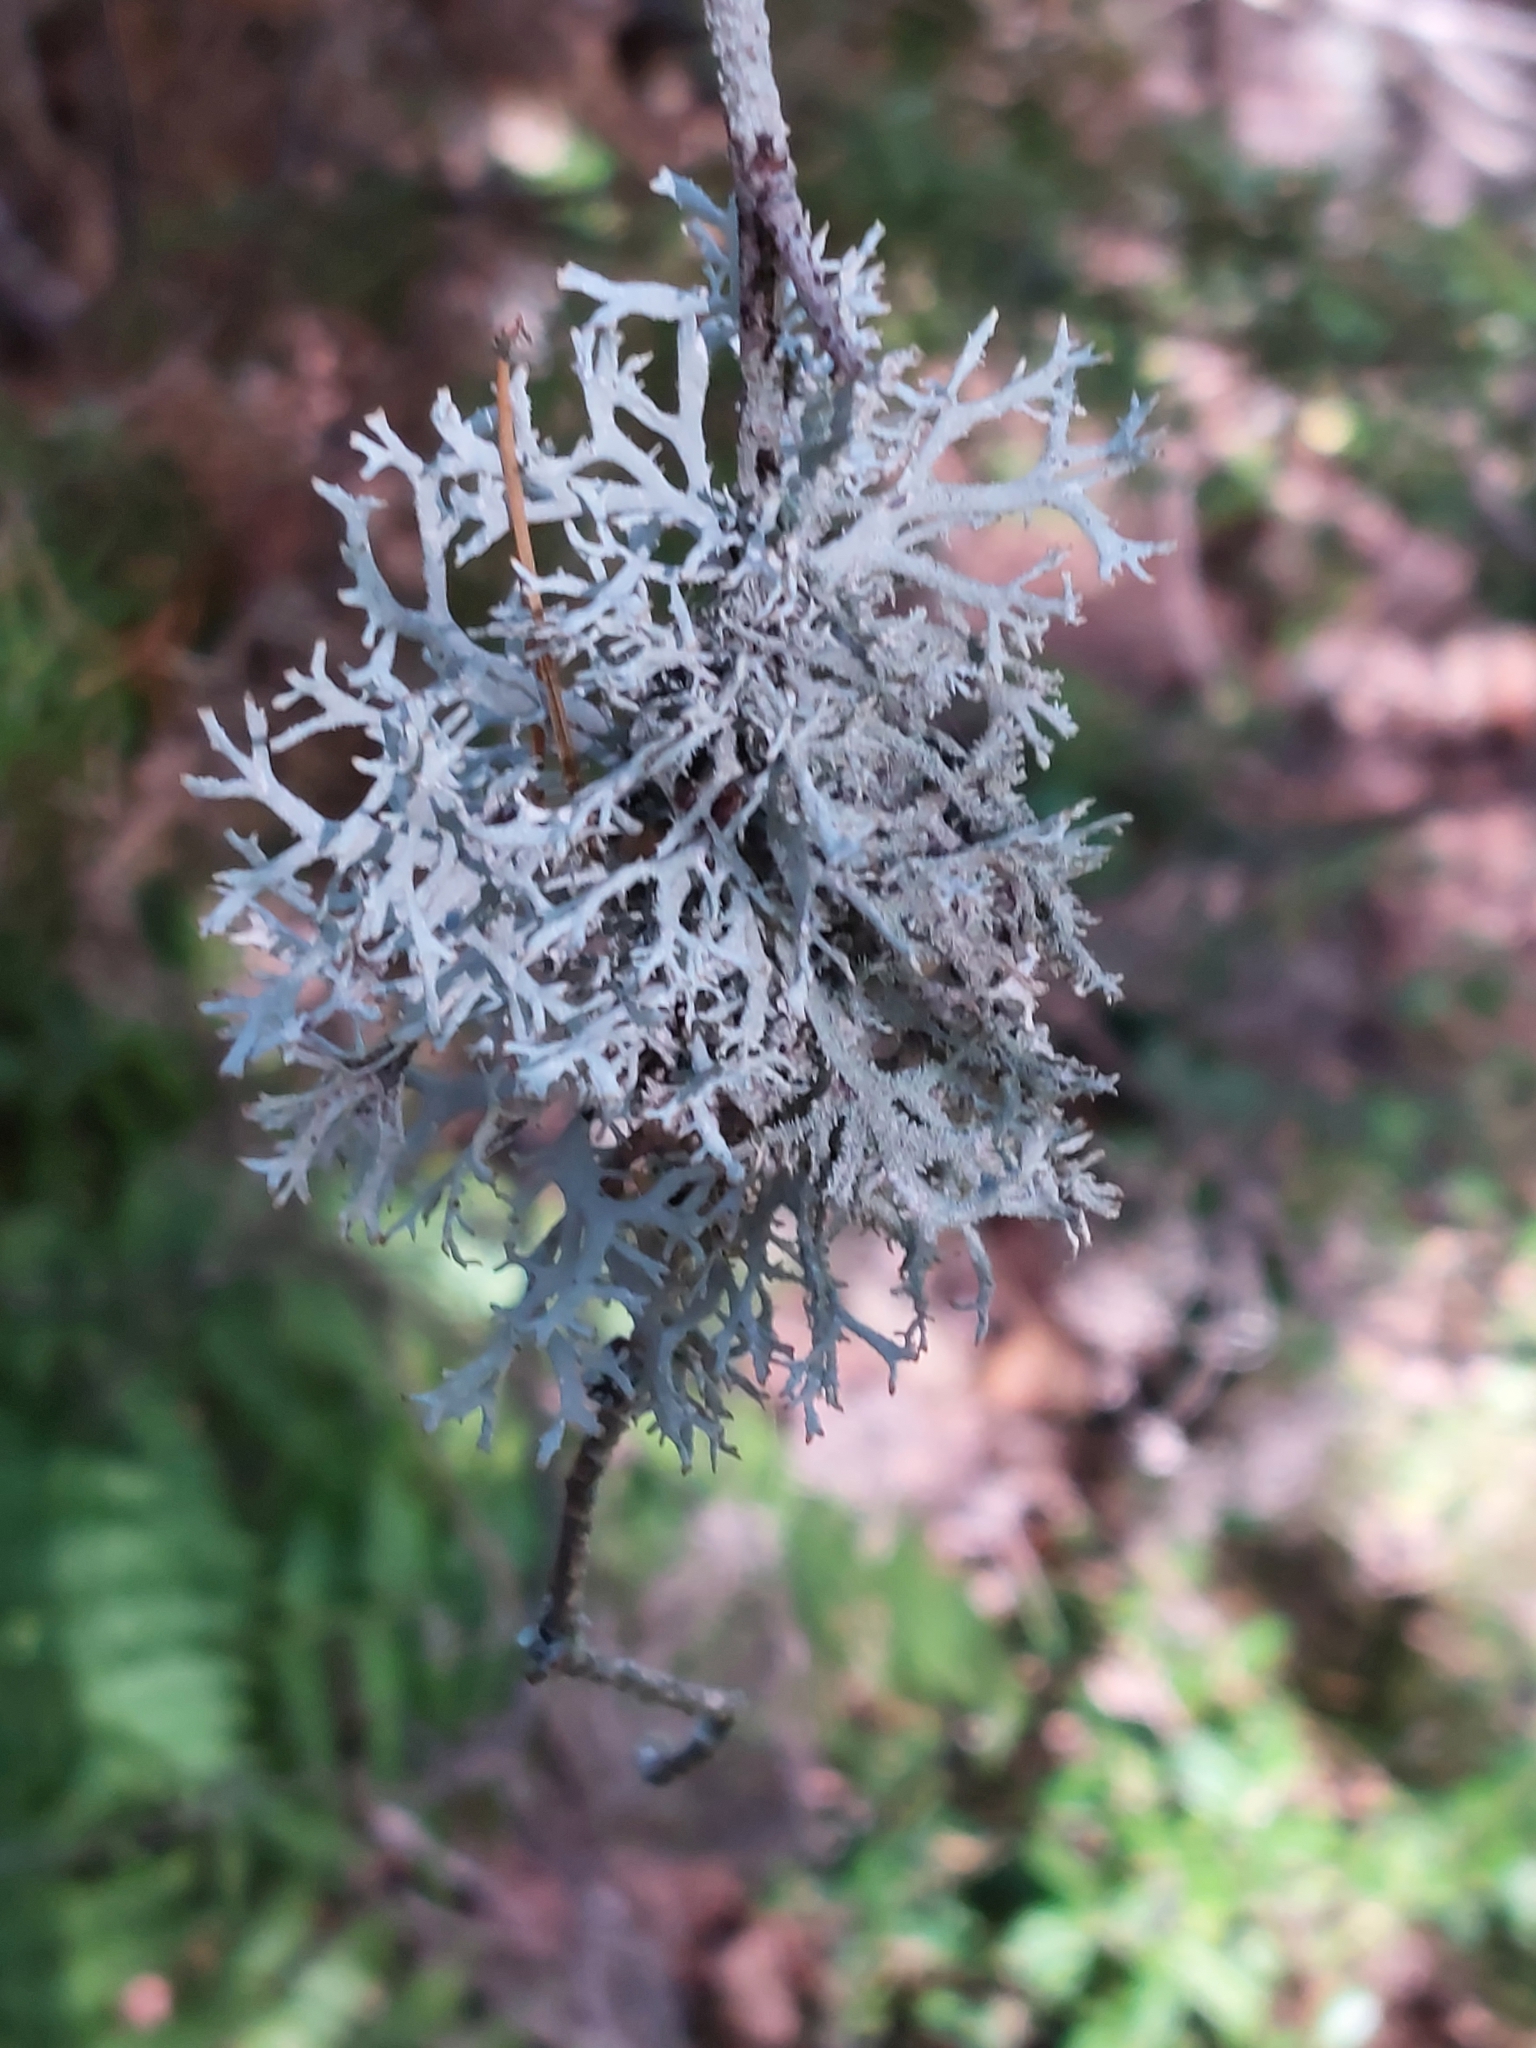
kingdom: Fungi
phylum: Ascomycota
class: Lecanoromycetes
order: Lecanorales
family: Parmeliaceae
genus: Pseudevernia
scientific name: Pseudevernia furfuracea
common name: Tree moss
